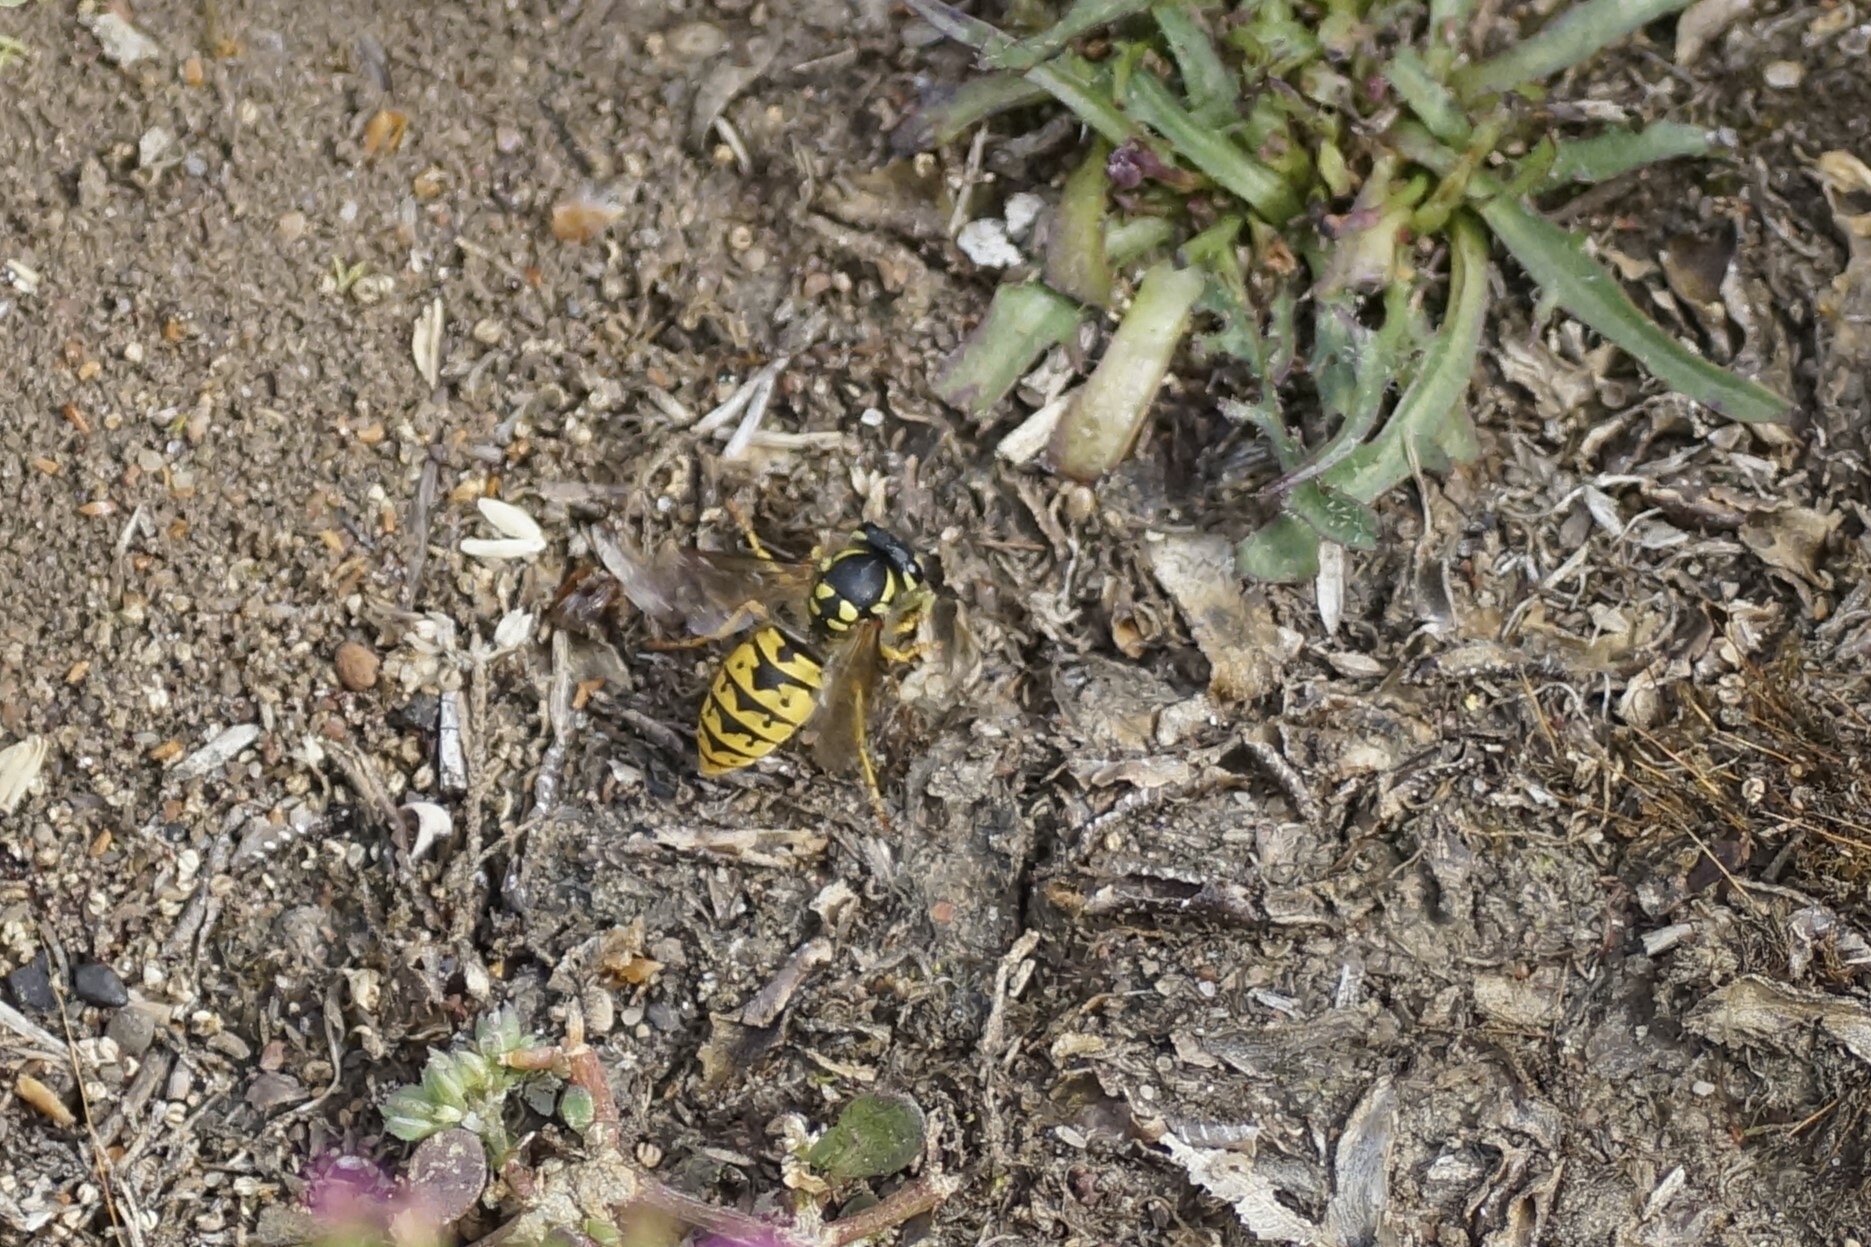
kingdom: Animalia
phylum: Arthropoda
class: Insecta
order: Hymenoptera
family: Vespidae
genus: Vespula
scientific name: Vespula germanica
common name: German wasp
